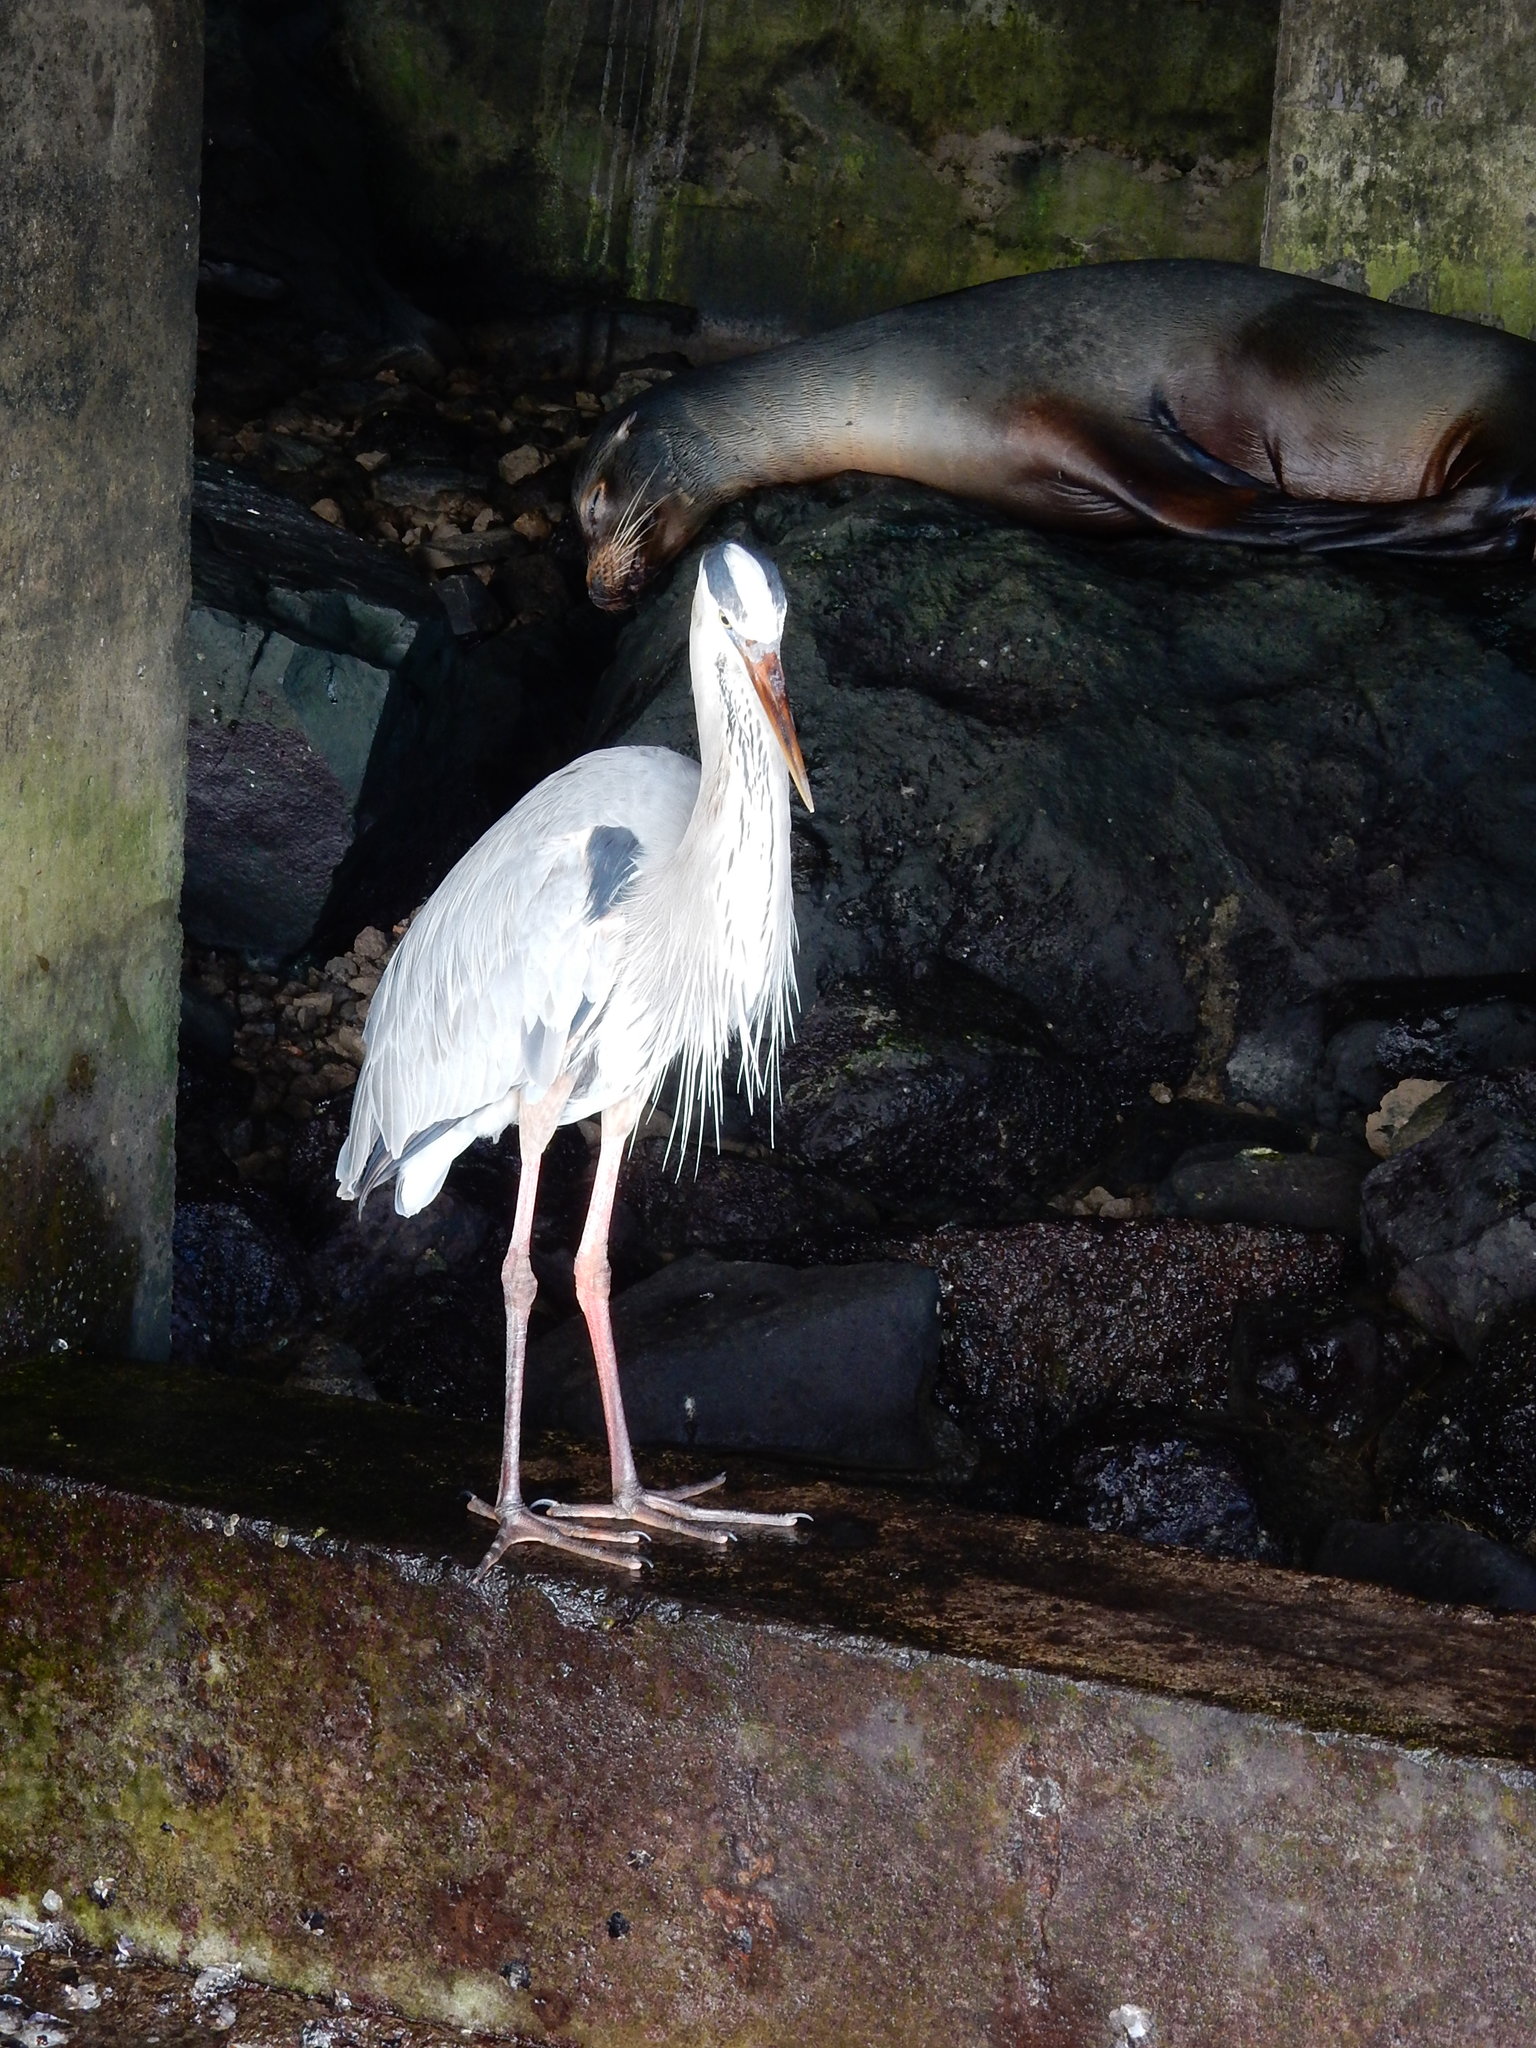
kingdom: Animalia
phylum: Chordata
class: Aves
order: Pelecaniformes
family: Ardeidae
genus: Ardea
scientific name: Ardea herodias
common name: Great blue heron
